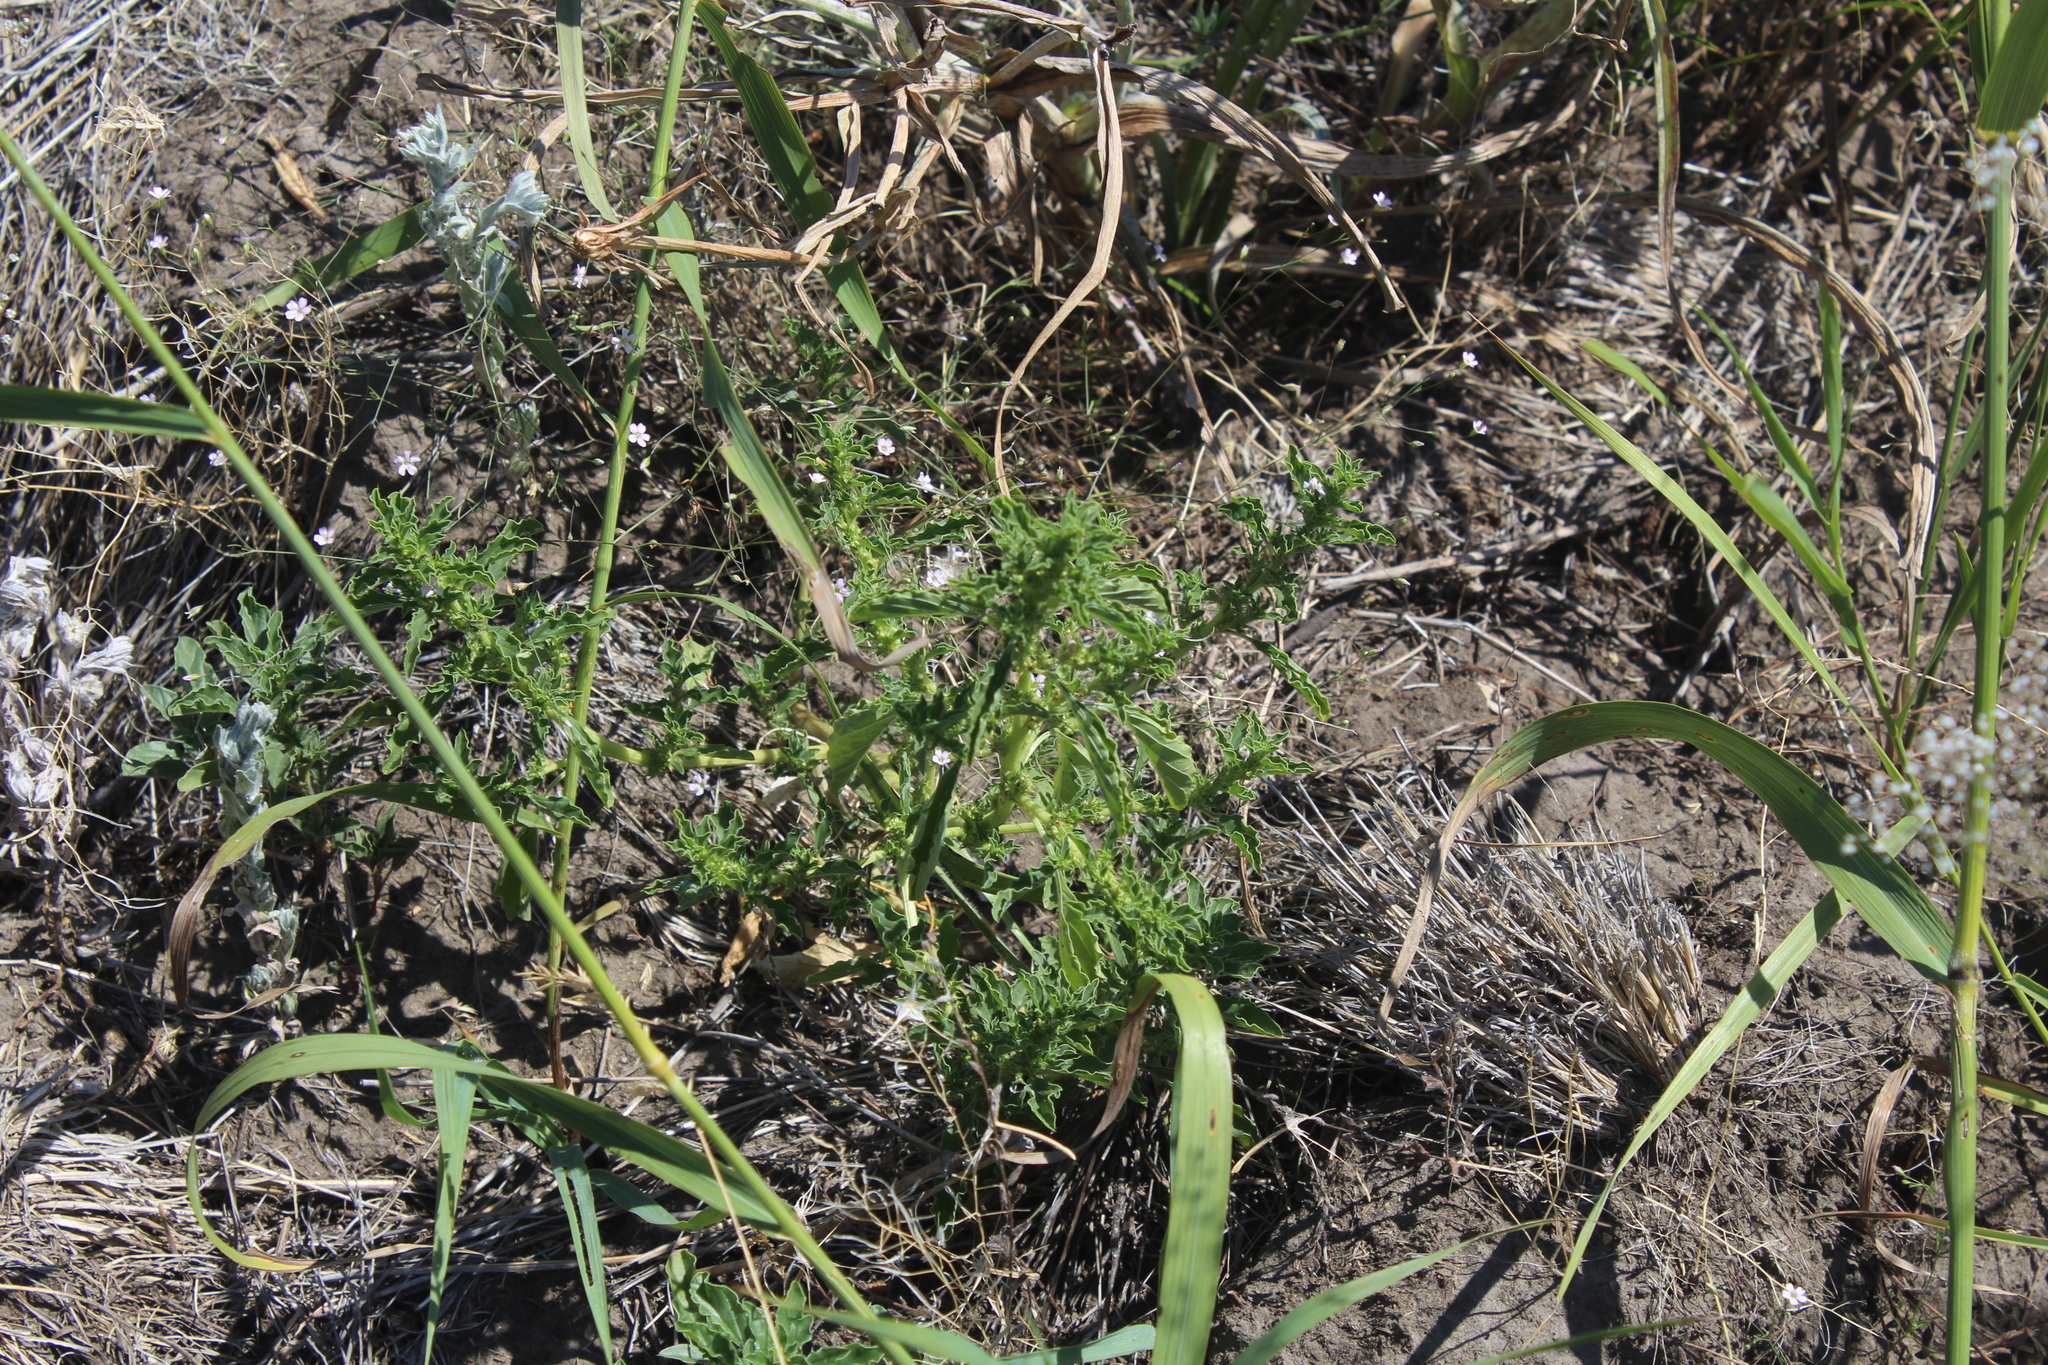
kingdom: Plantae
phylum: Tracheophyta
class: Magnoliopsida
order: Caryophyllales
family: Amaranthaceae
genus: Amaranthus
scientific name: Amaranthus albus
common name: White pigweed
